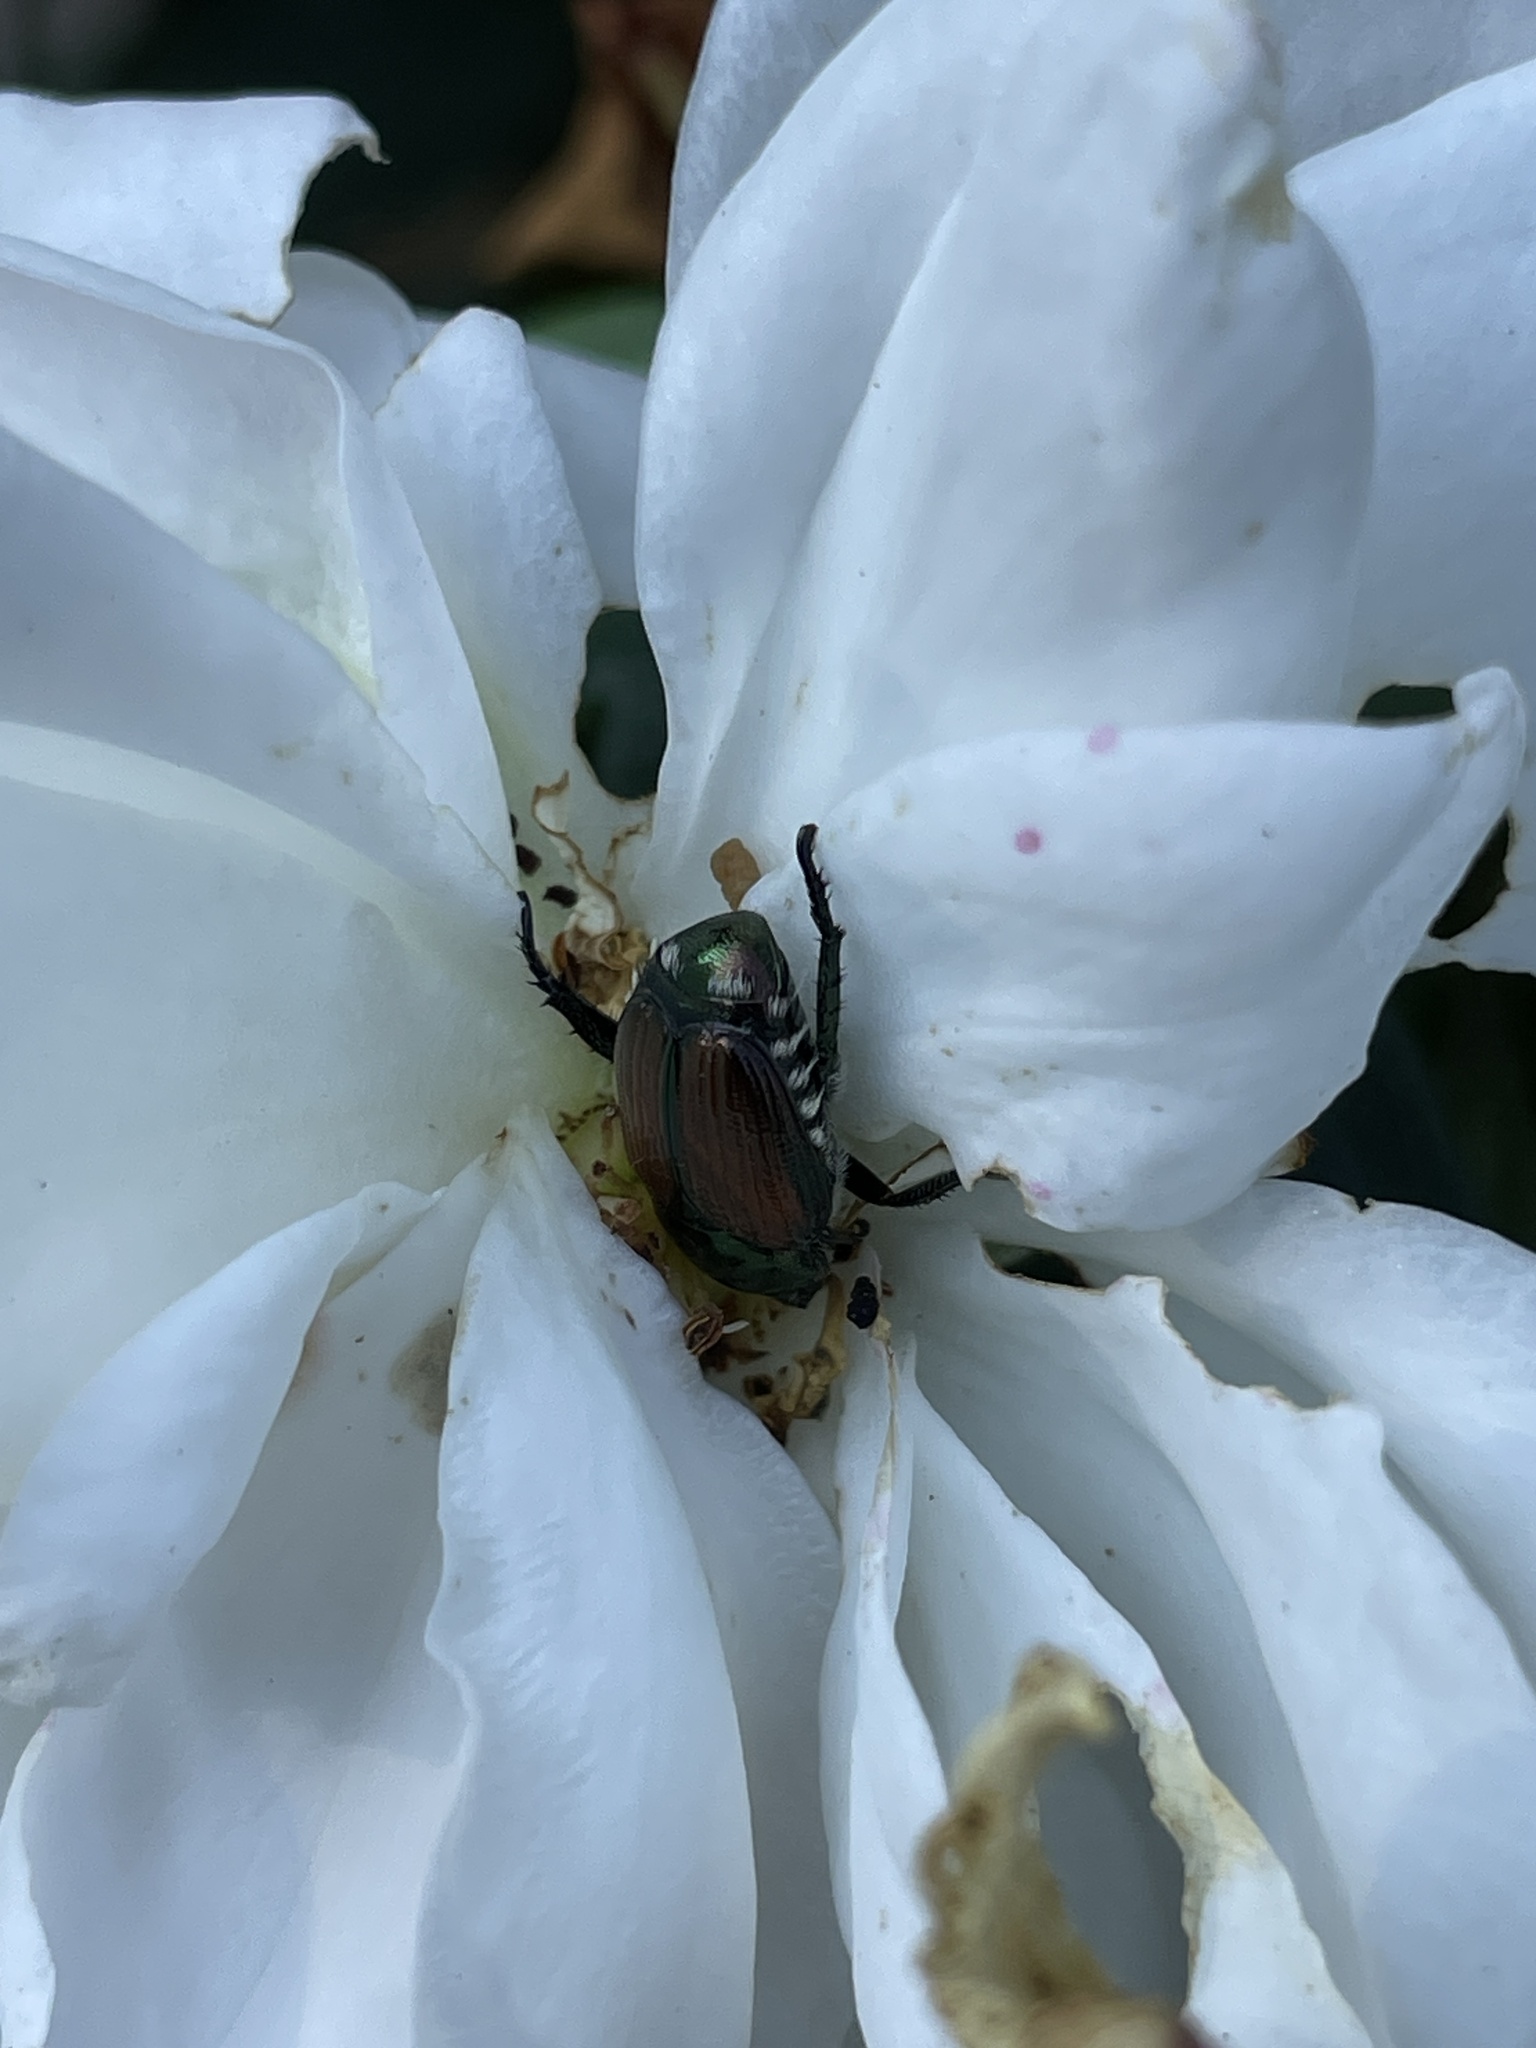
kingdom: Animalia
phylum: Arthropoda
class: Insecta
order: Coleoptera
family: Scarabaeidae
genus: Popillia
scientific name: Popillia japonica
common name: Japanese beetle
